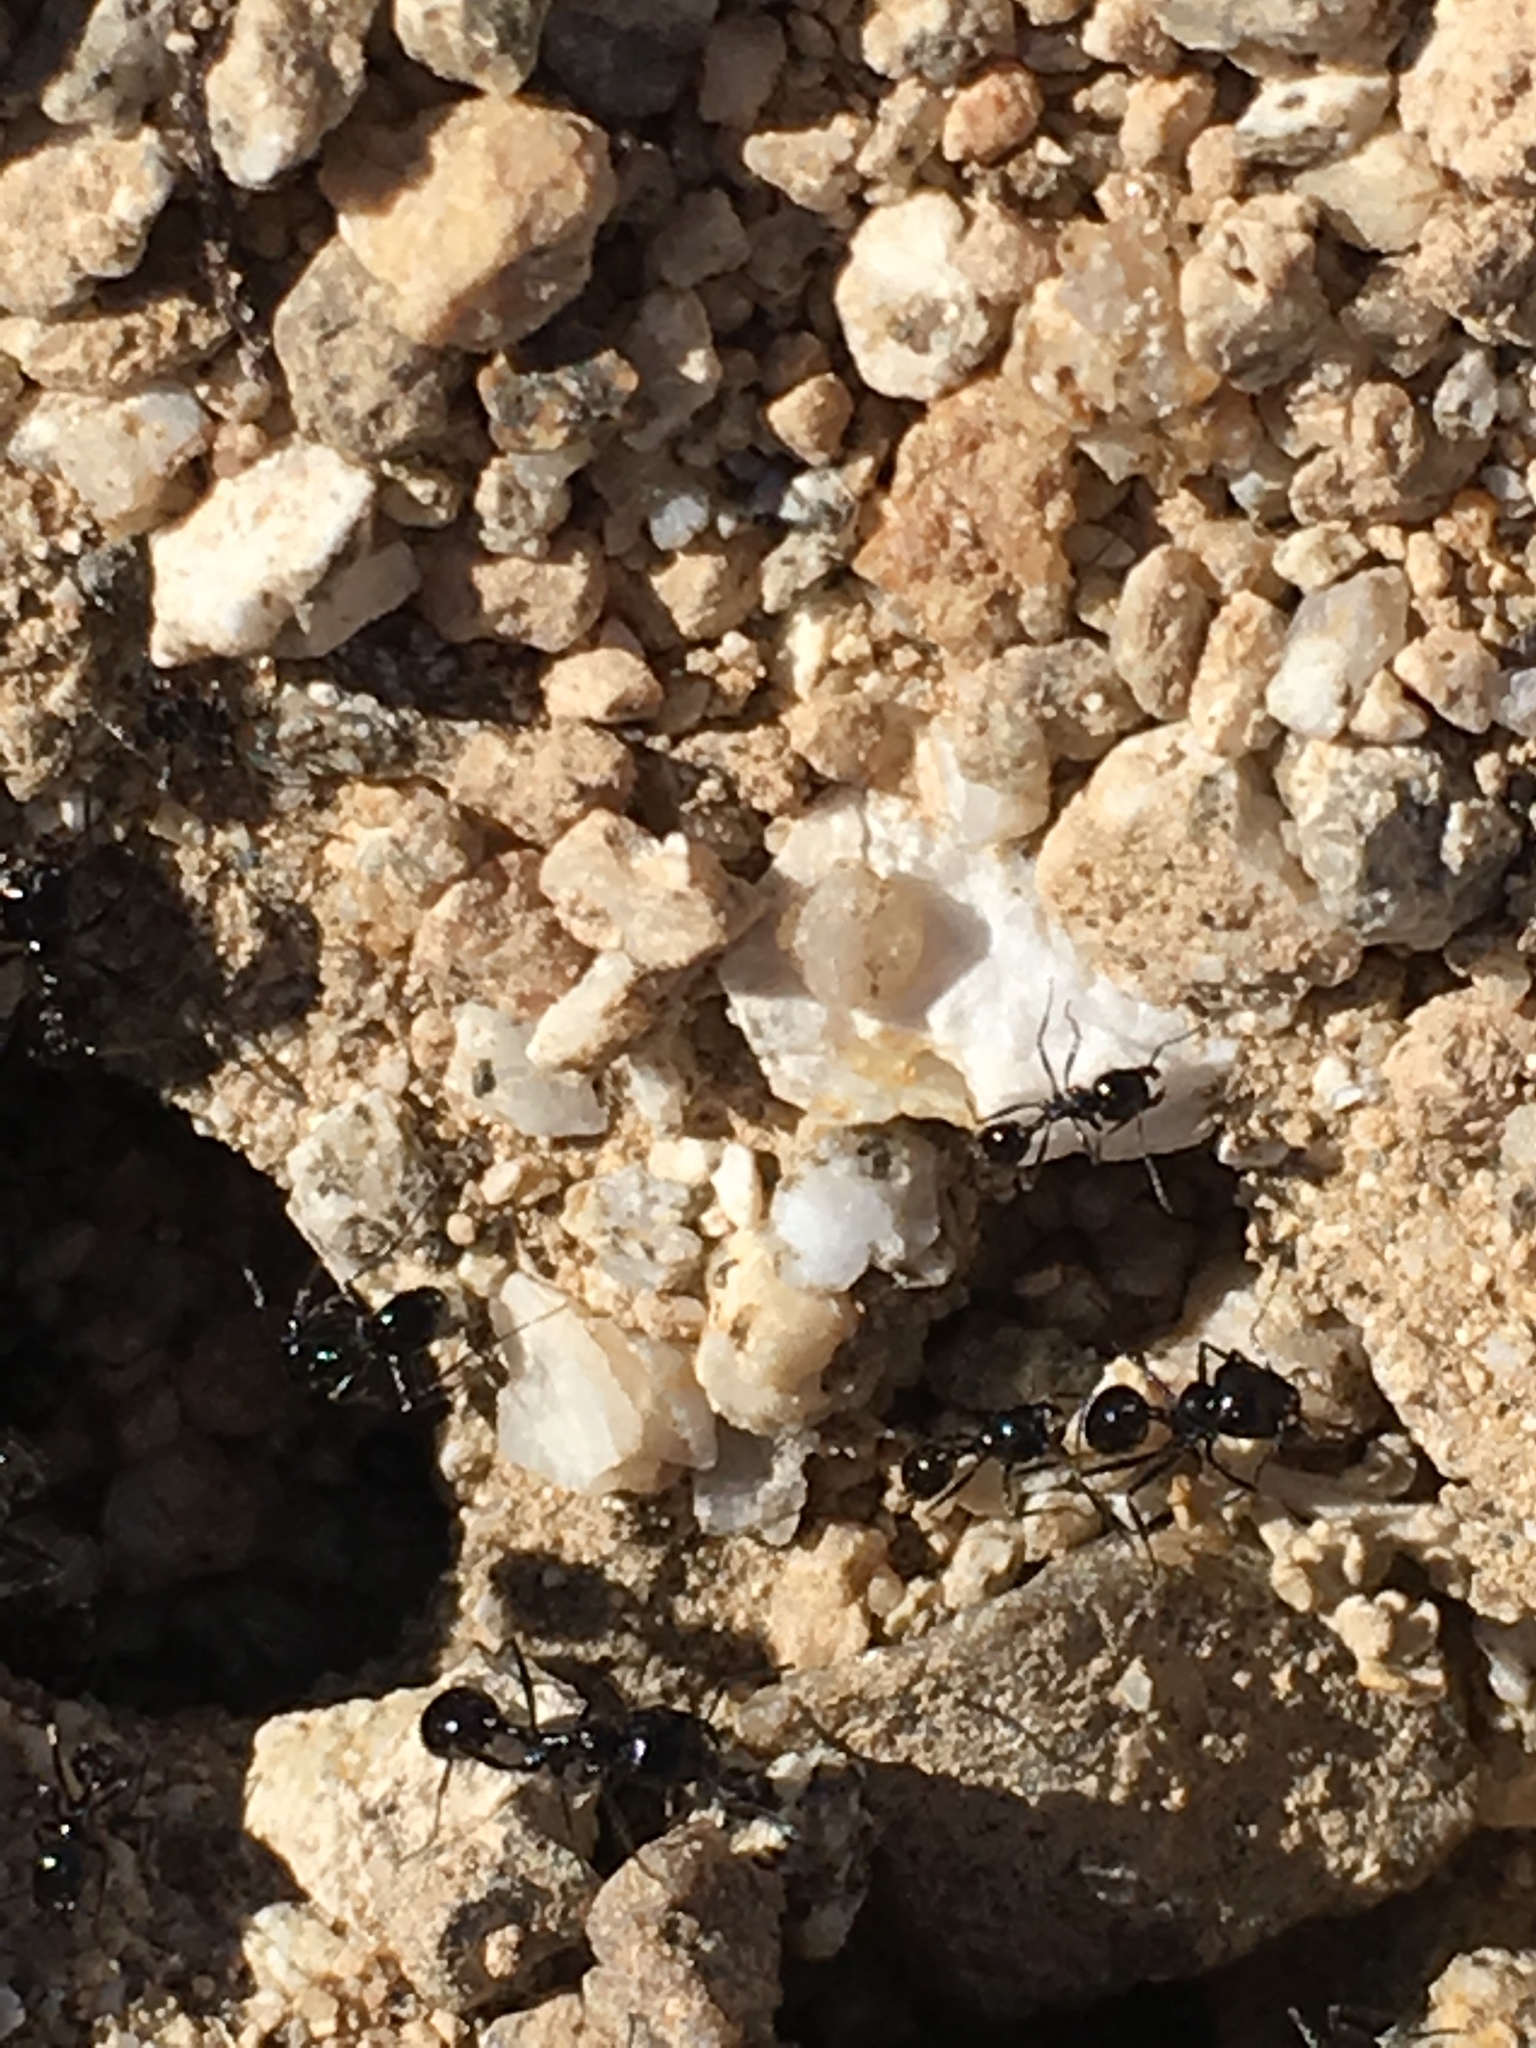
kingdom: Animalia
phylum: Arthropoda
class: Insecta
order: Hymenoptera
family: Formicidae
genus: Messor
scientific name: Messor pergandei
